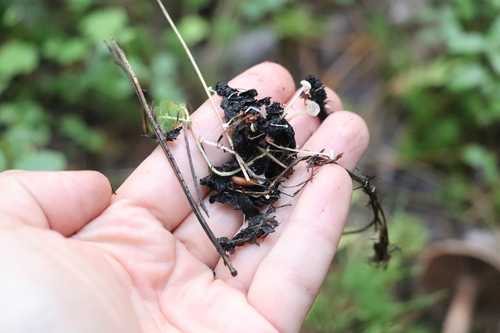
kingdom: Fungi
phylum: Basidiomycota
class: Agaricomycetes
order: Agaricales
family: Tricholomataceae
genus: Collybia
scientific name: Collybia tuberosa
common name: Lentil shanklet
